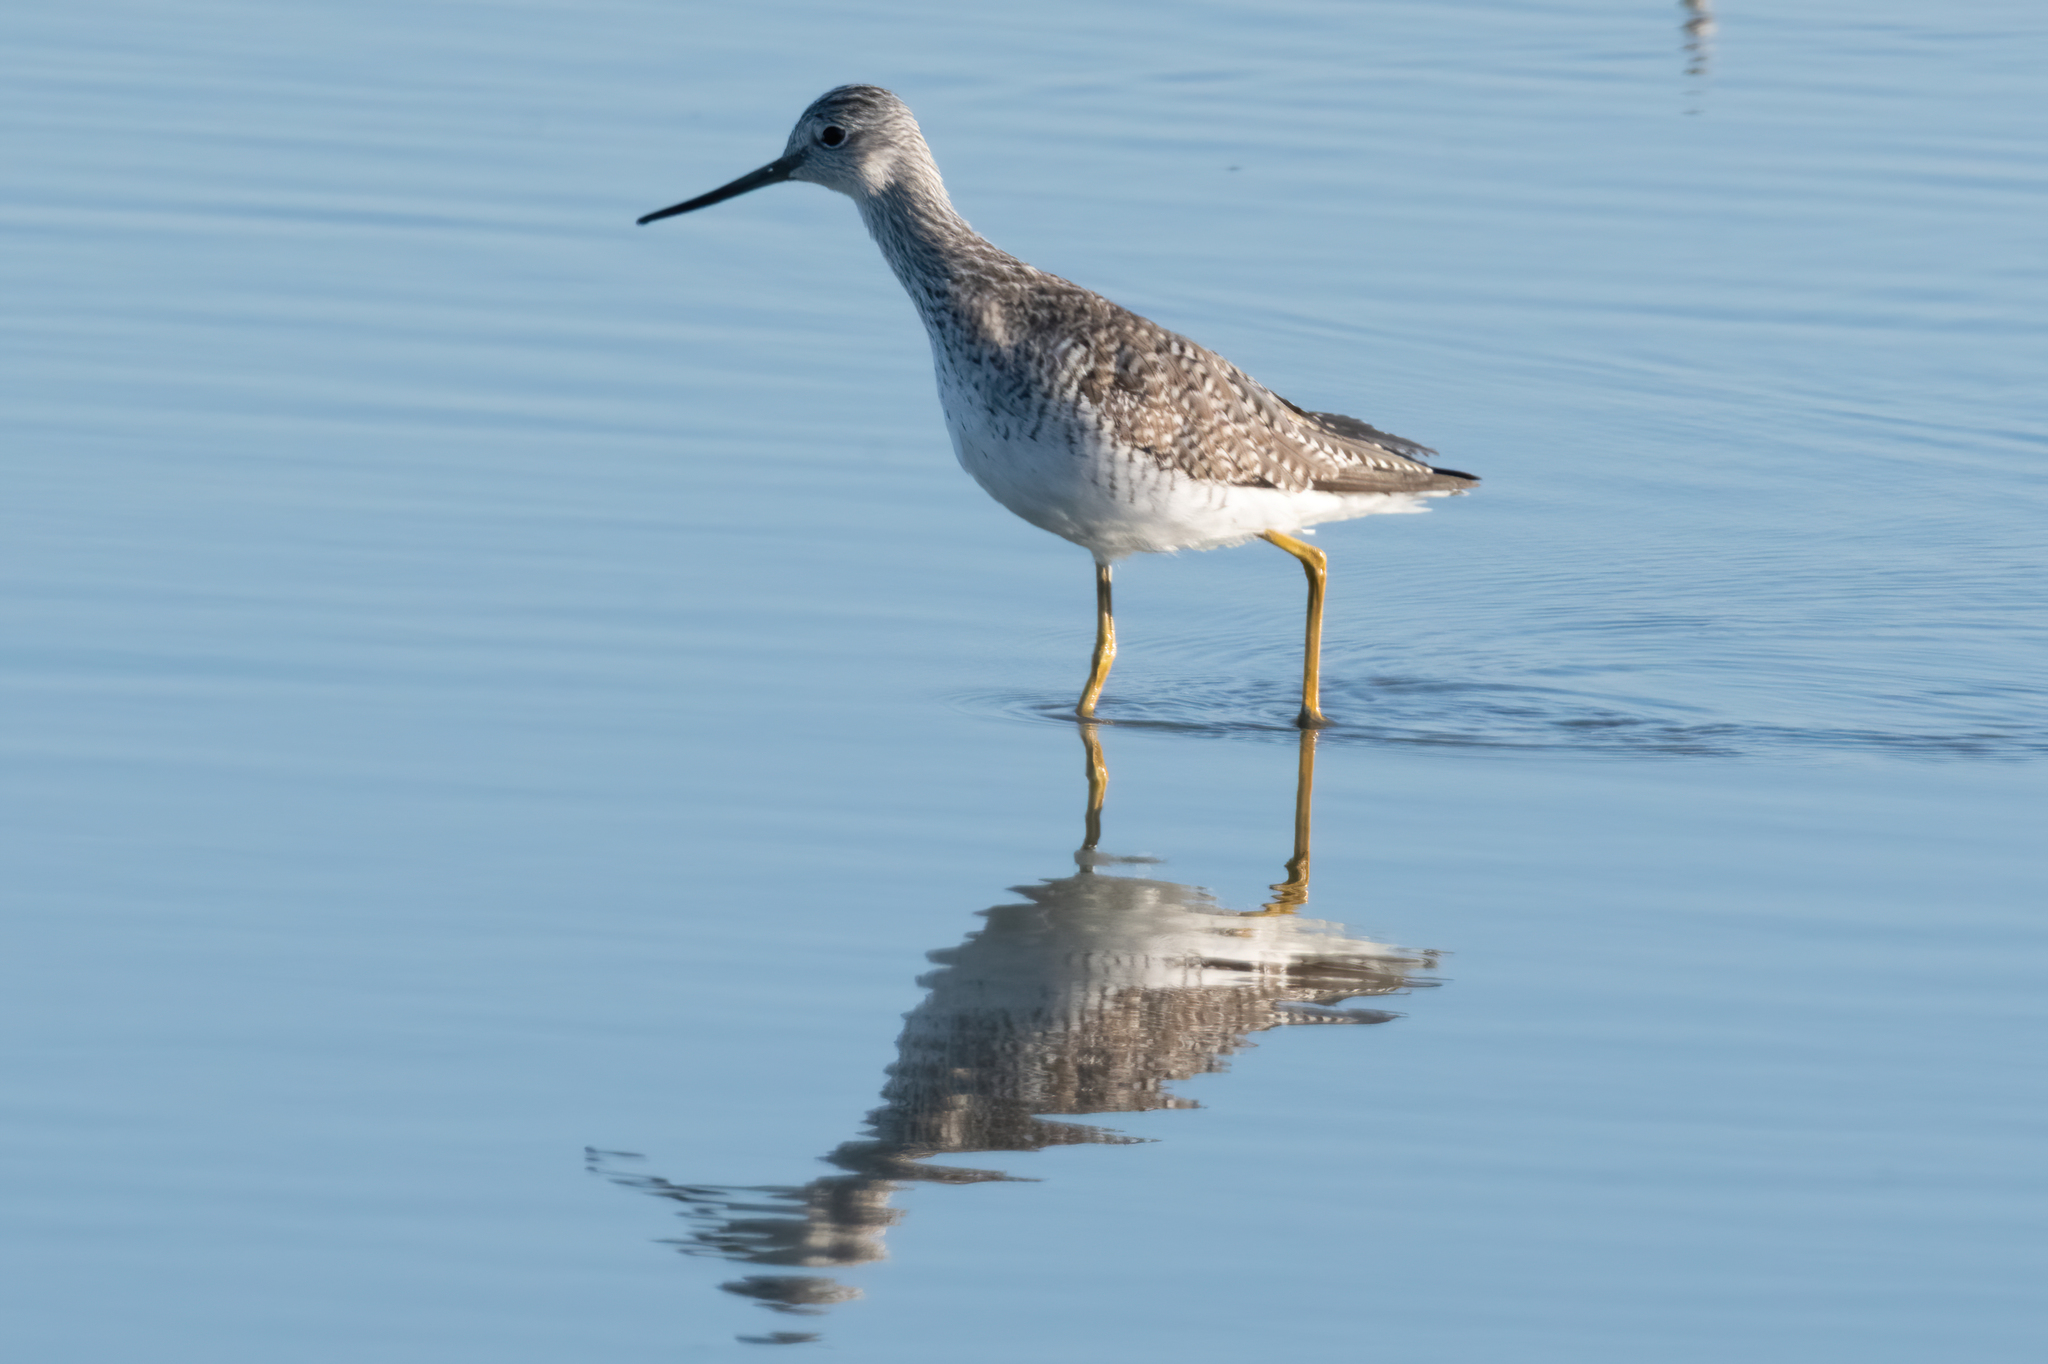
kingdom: Animalia
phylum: Chordata
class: Aves
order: Charadriiformes
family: Scolopacidae
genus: Tringa
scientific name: Tringa melanoleuca
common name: Greater yellowlegs
